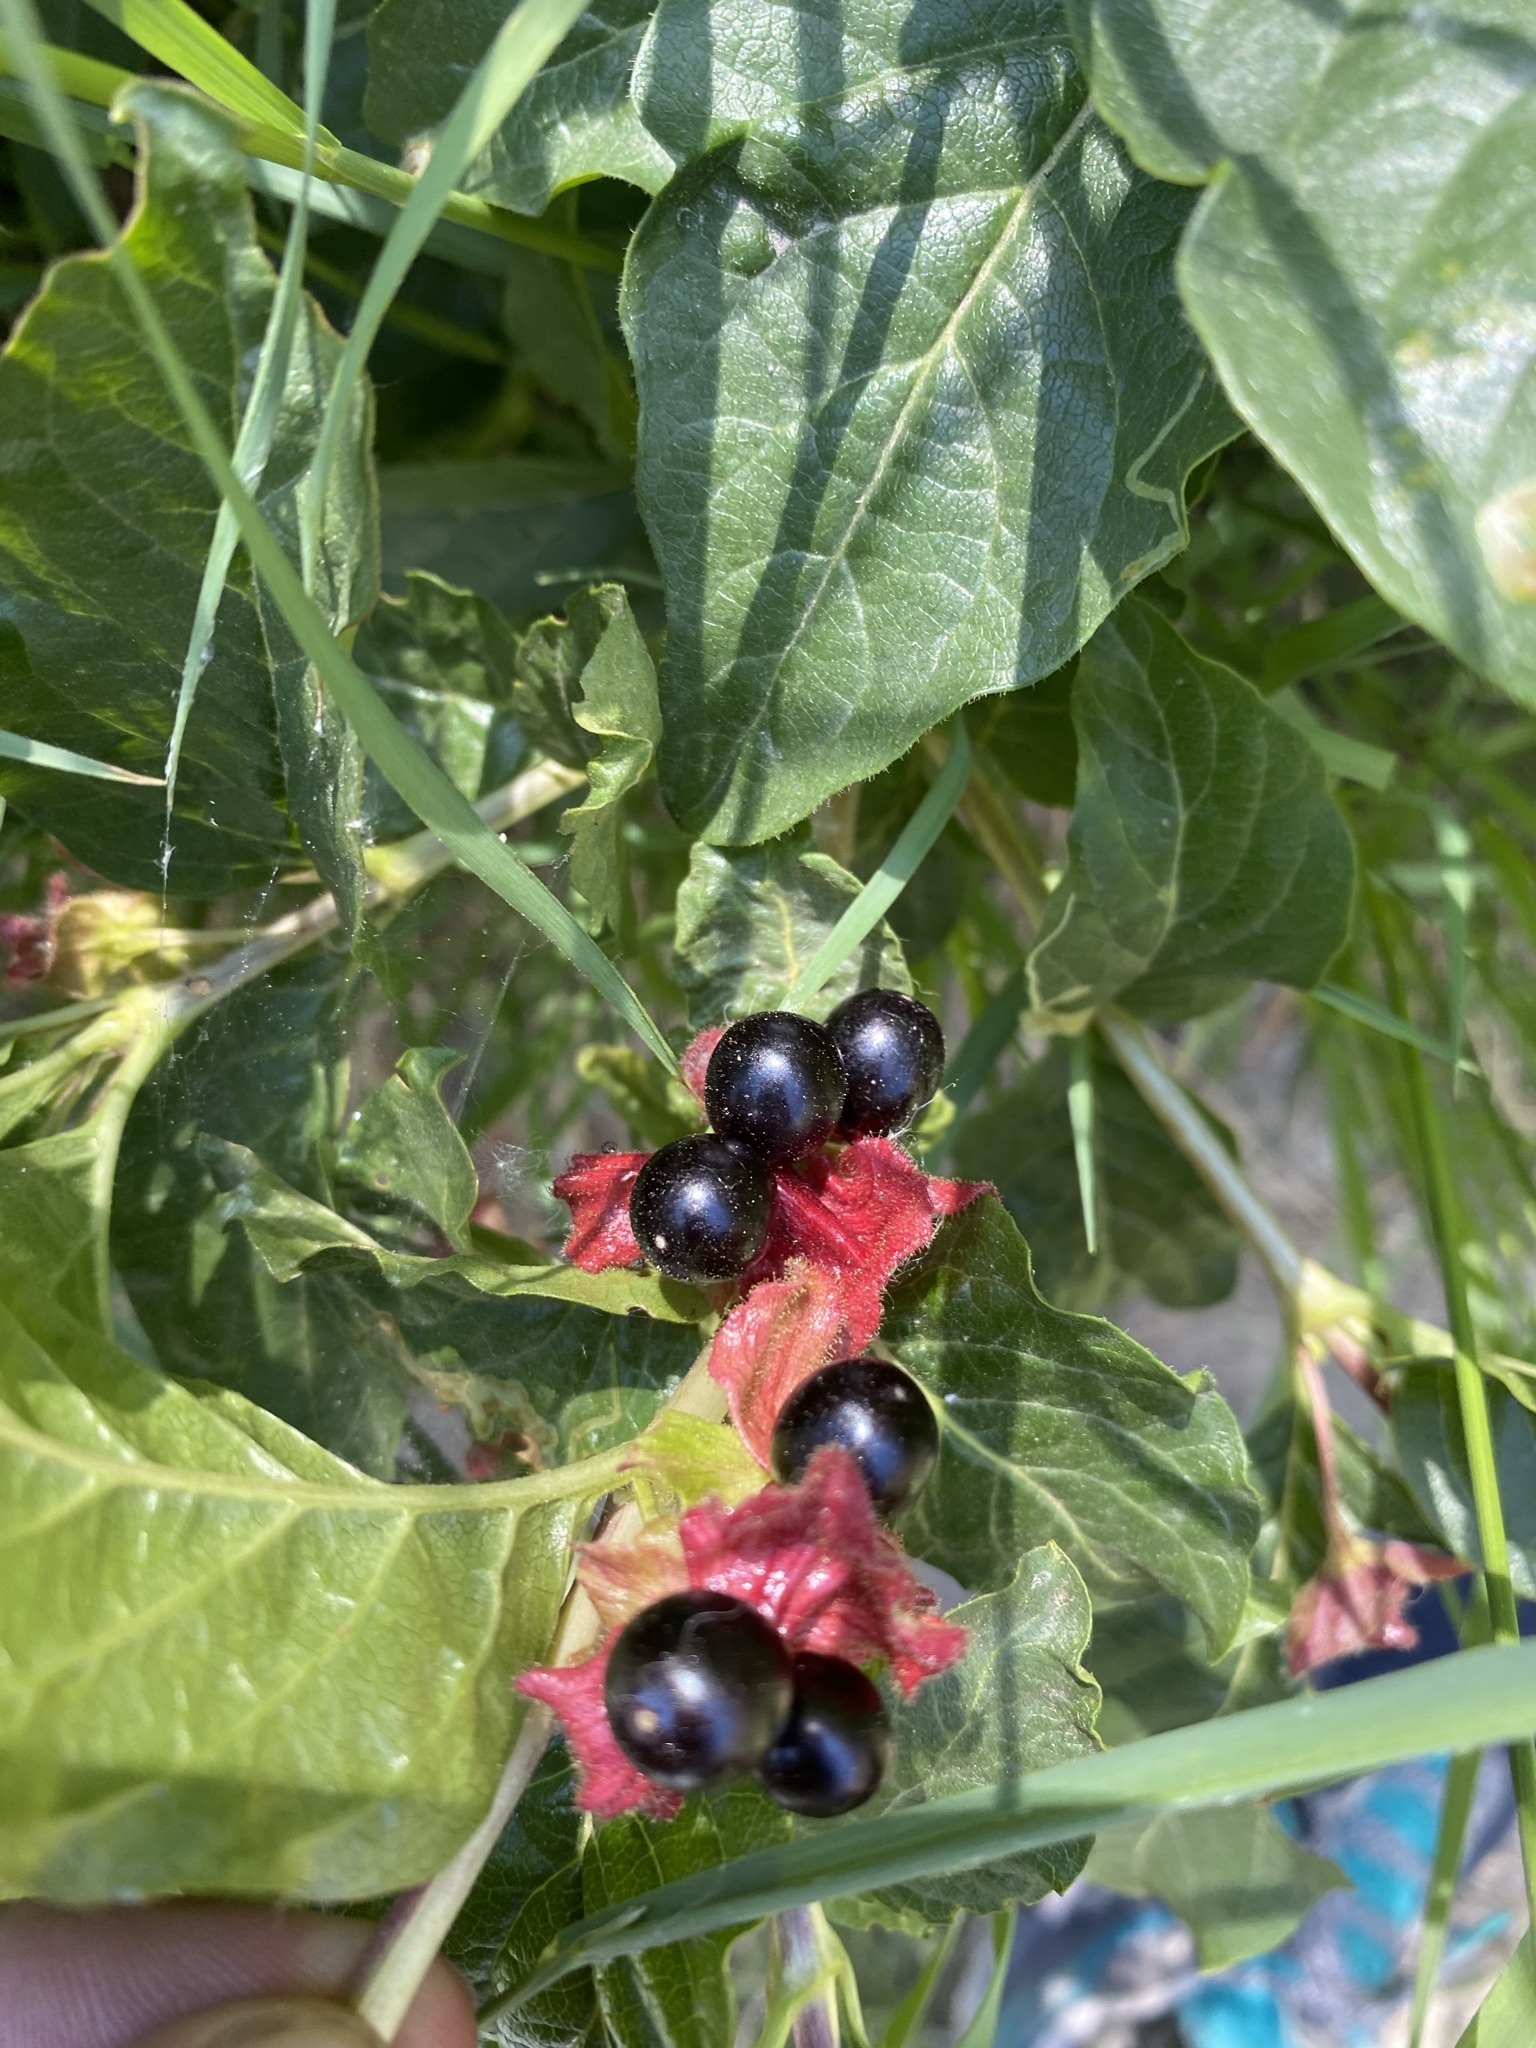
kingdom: Plantae
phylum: Tracheophyta
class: Magnoliopsida
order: Dipsacales
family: Caprifoliaceae
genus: Lonicera
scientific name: Lonicera involucrata
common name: Californian honeysuckle
